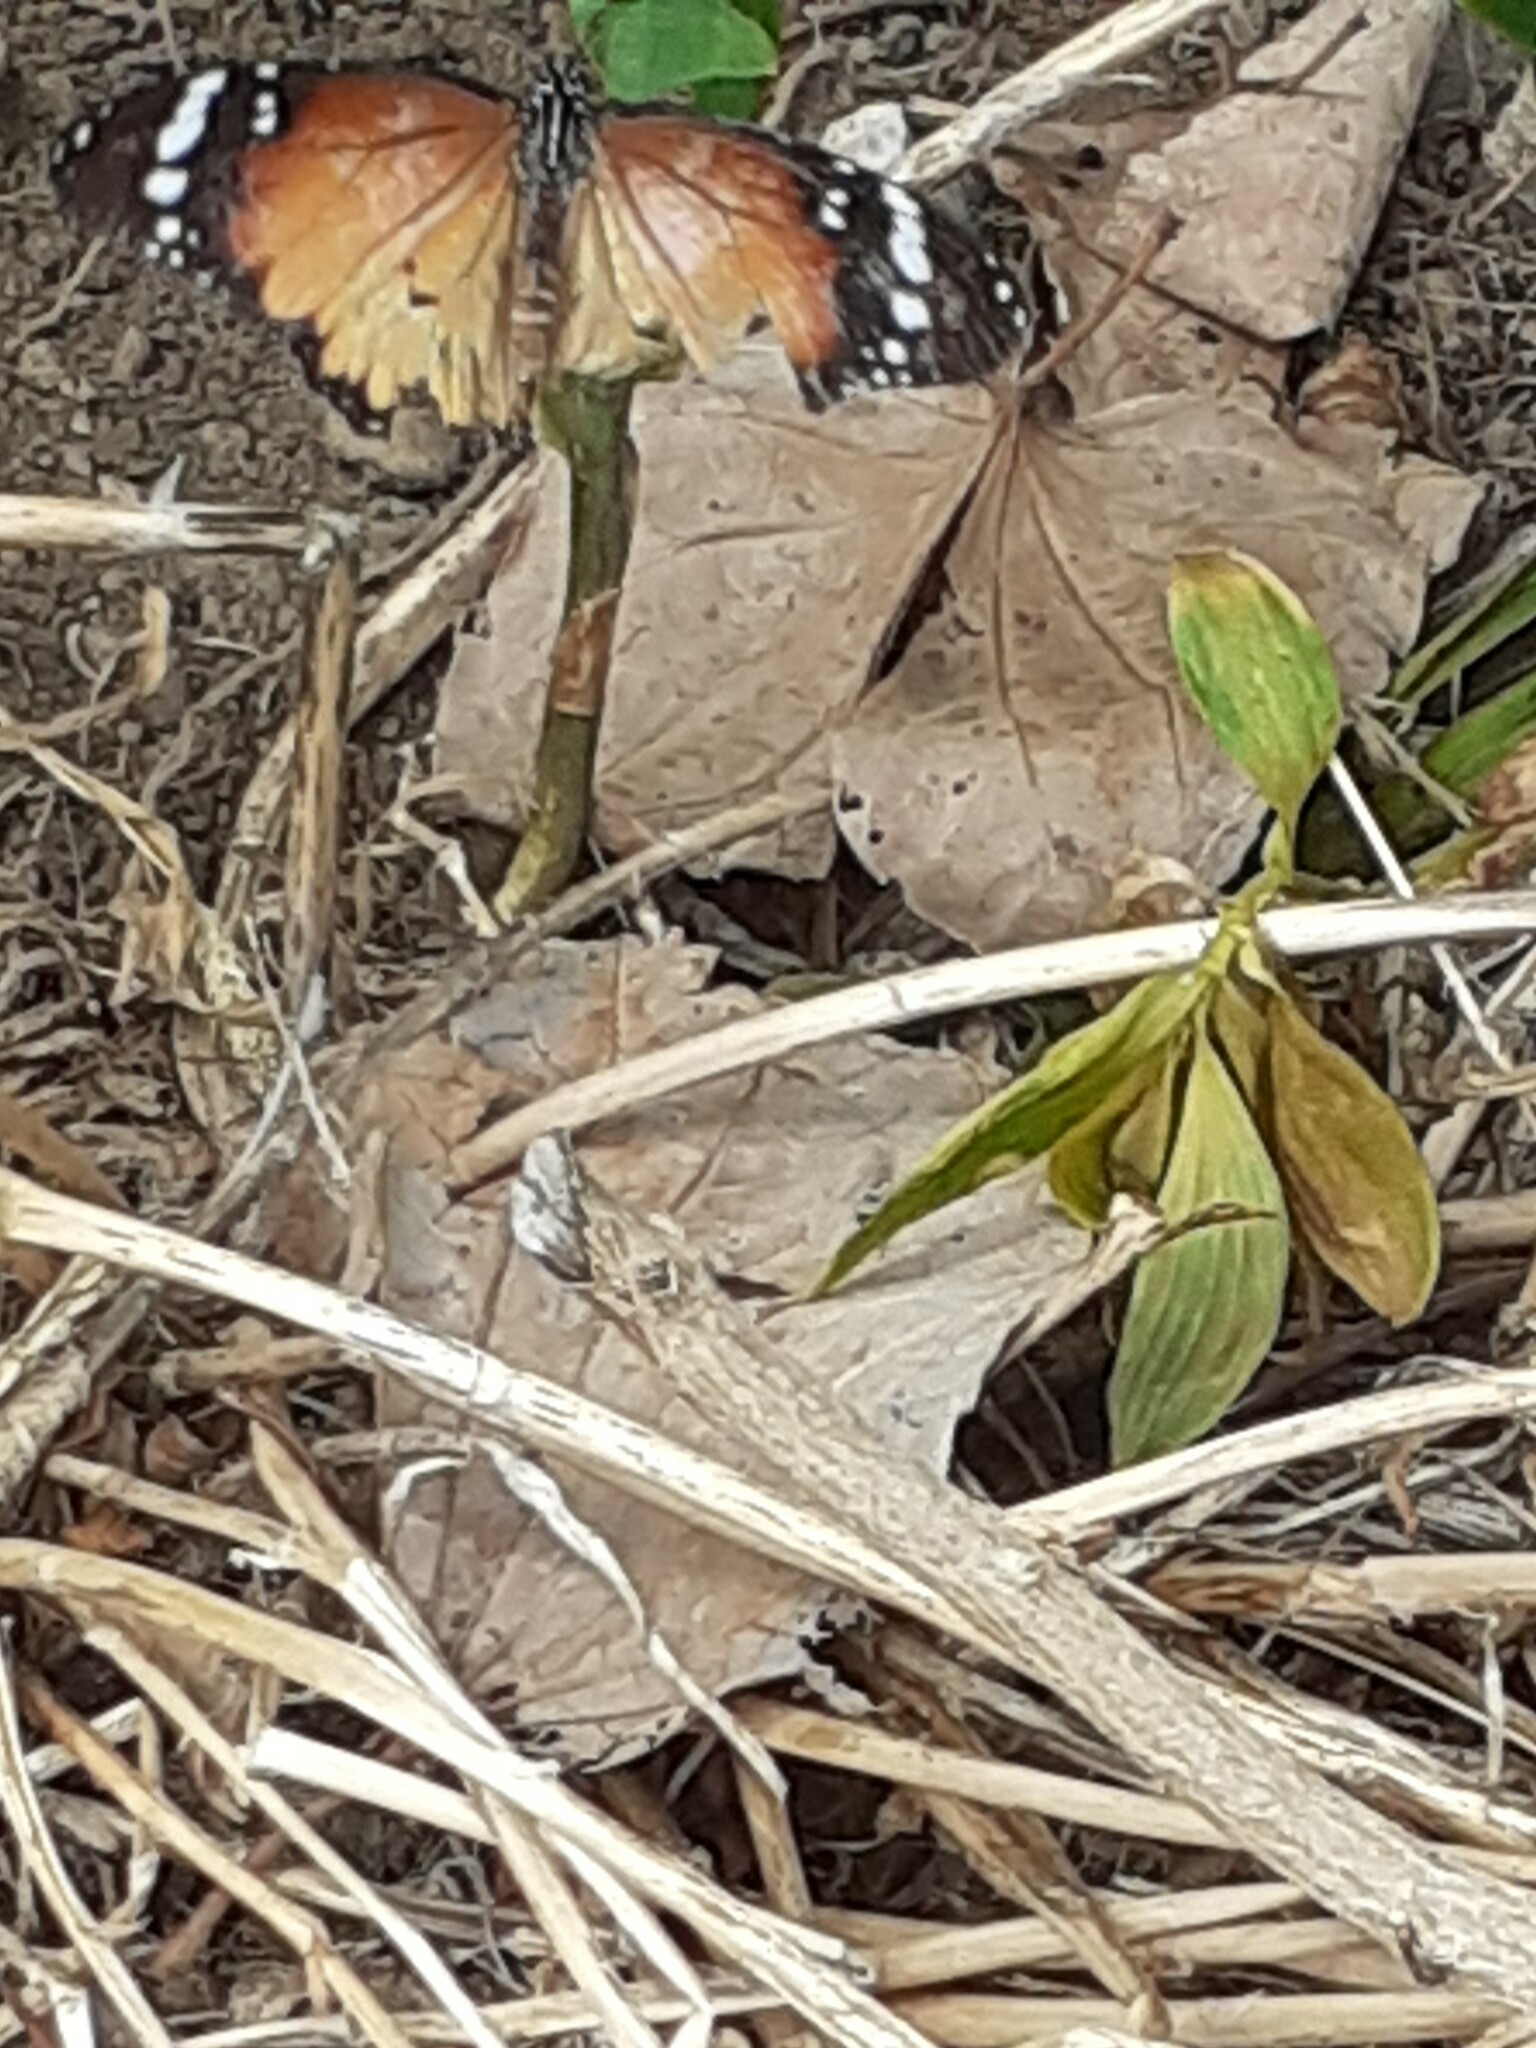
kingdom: Animalia
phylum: Arthropoda
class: Insecta
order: Lepidoptera
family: Nymphalidae
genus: Danaus
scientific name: Danaus chrysippus
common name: Plain tiger
